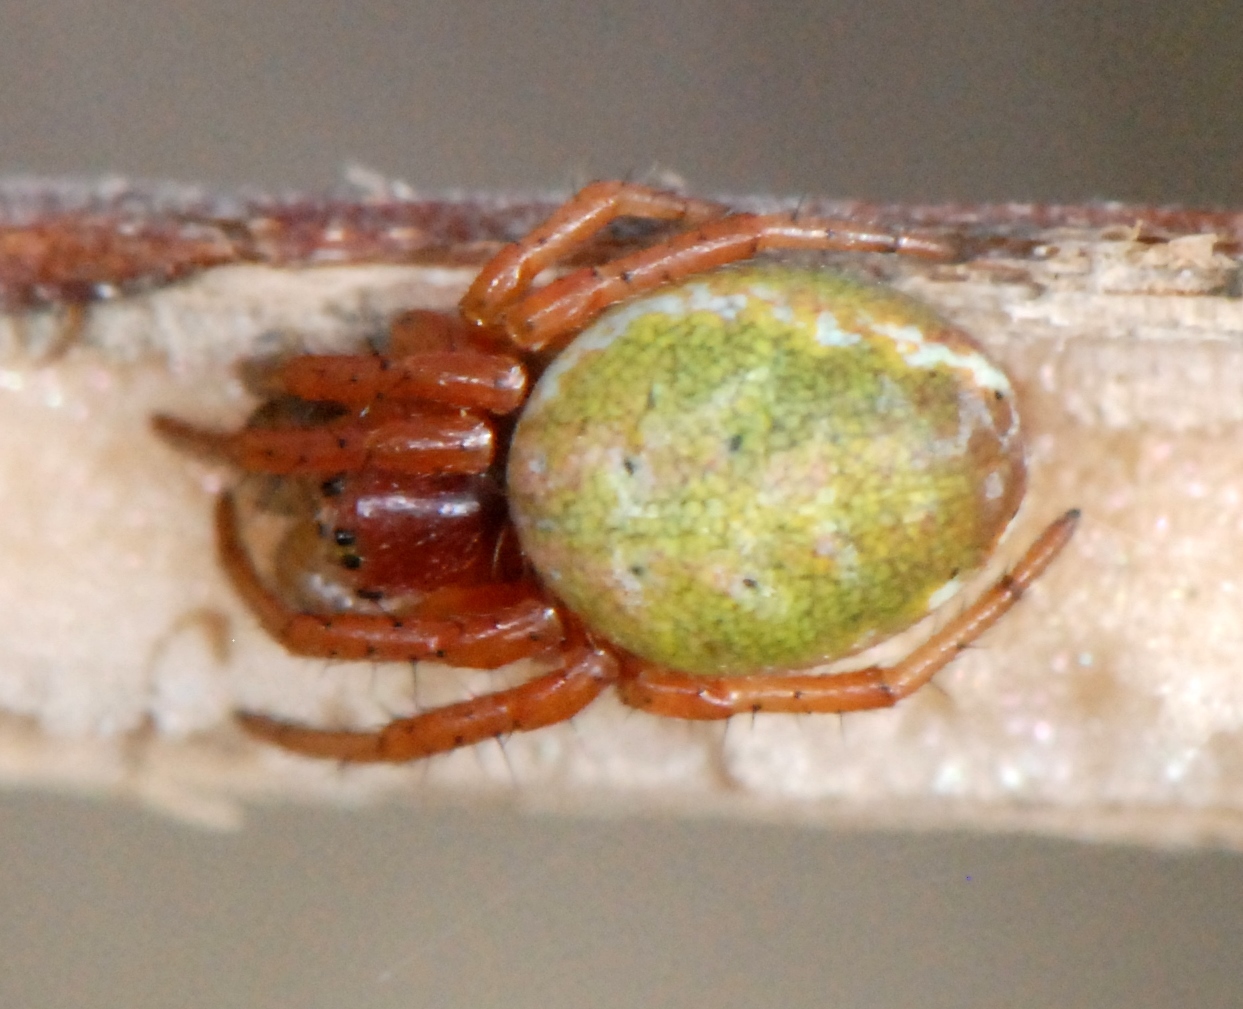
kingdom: Animalia
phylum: Arthropoda
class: Arachnida
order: Araneae
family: Araneidae
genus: Araniella
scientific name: Araniella displicata
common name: Sixspotted orb weaver
